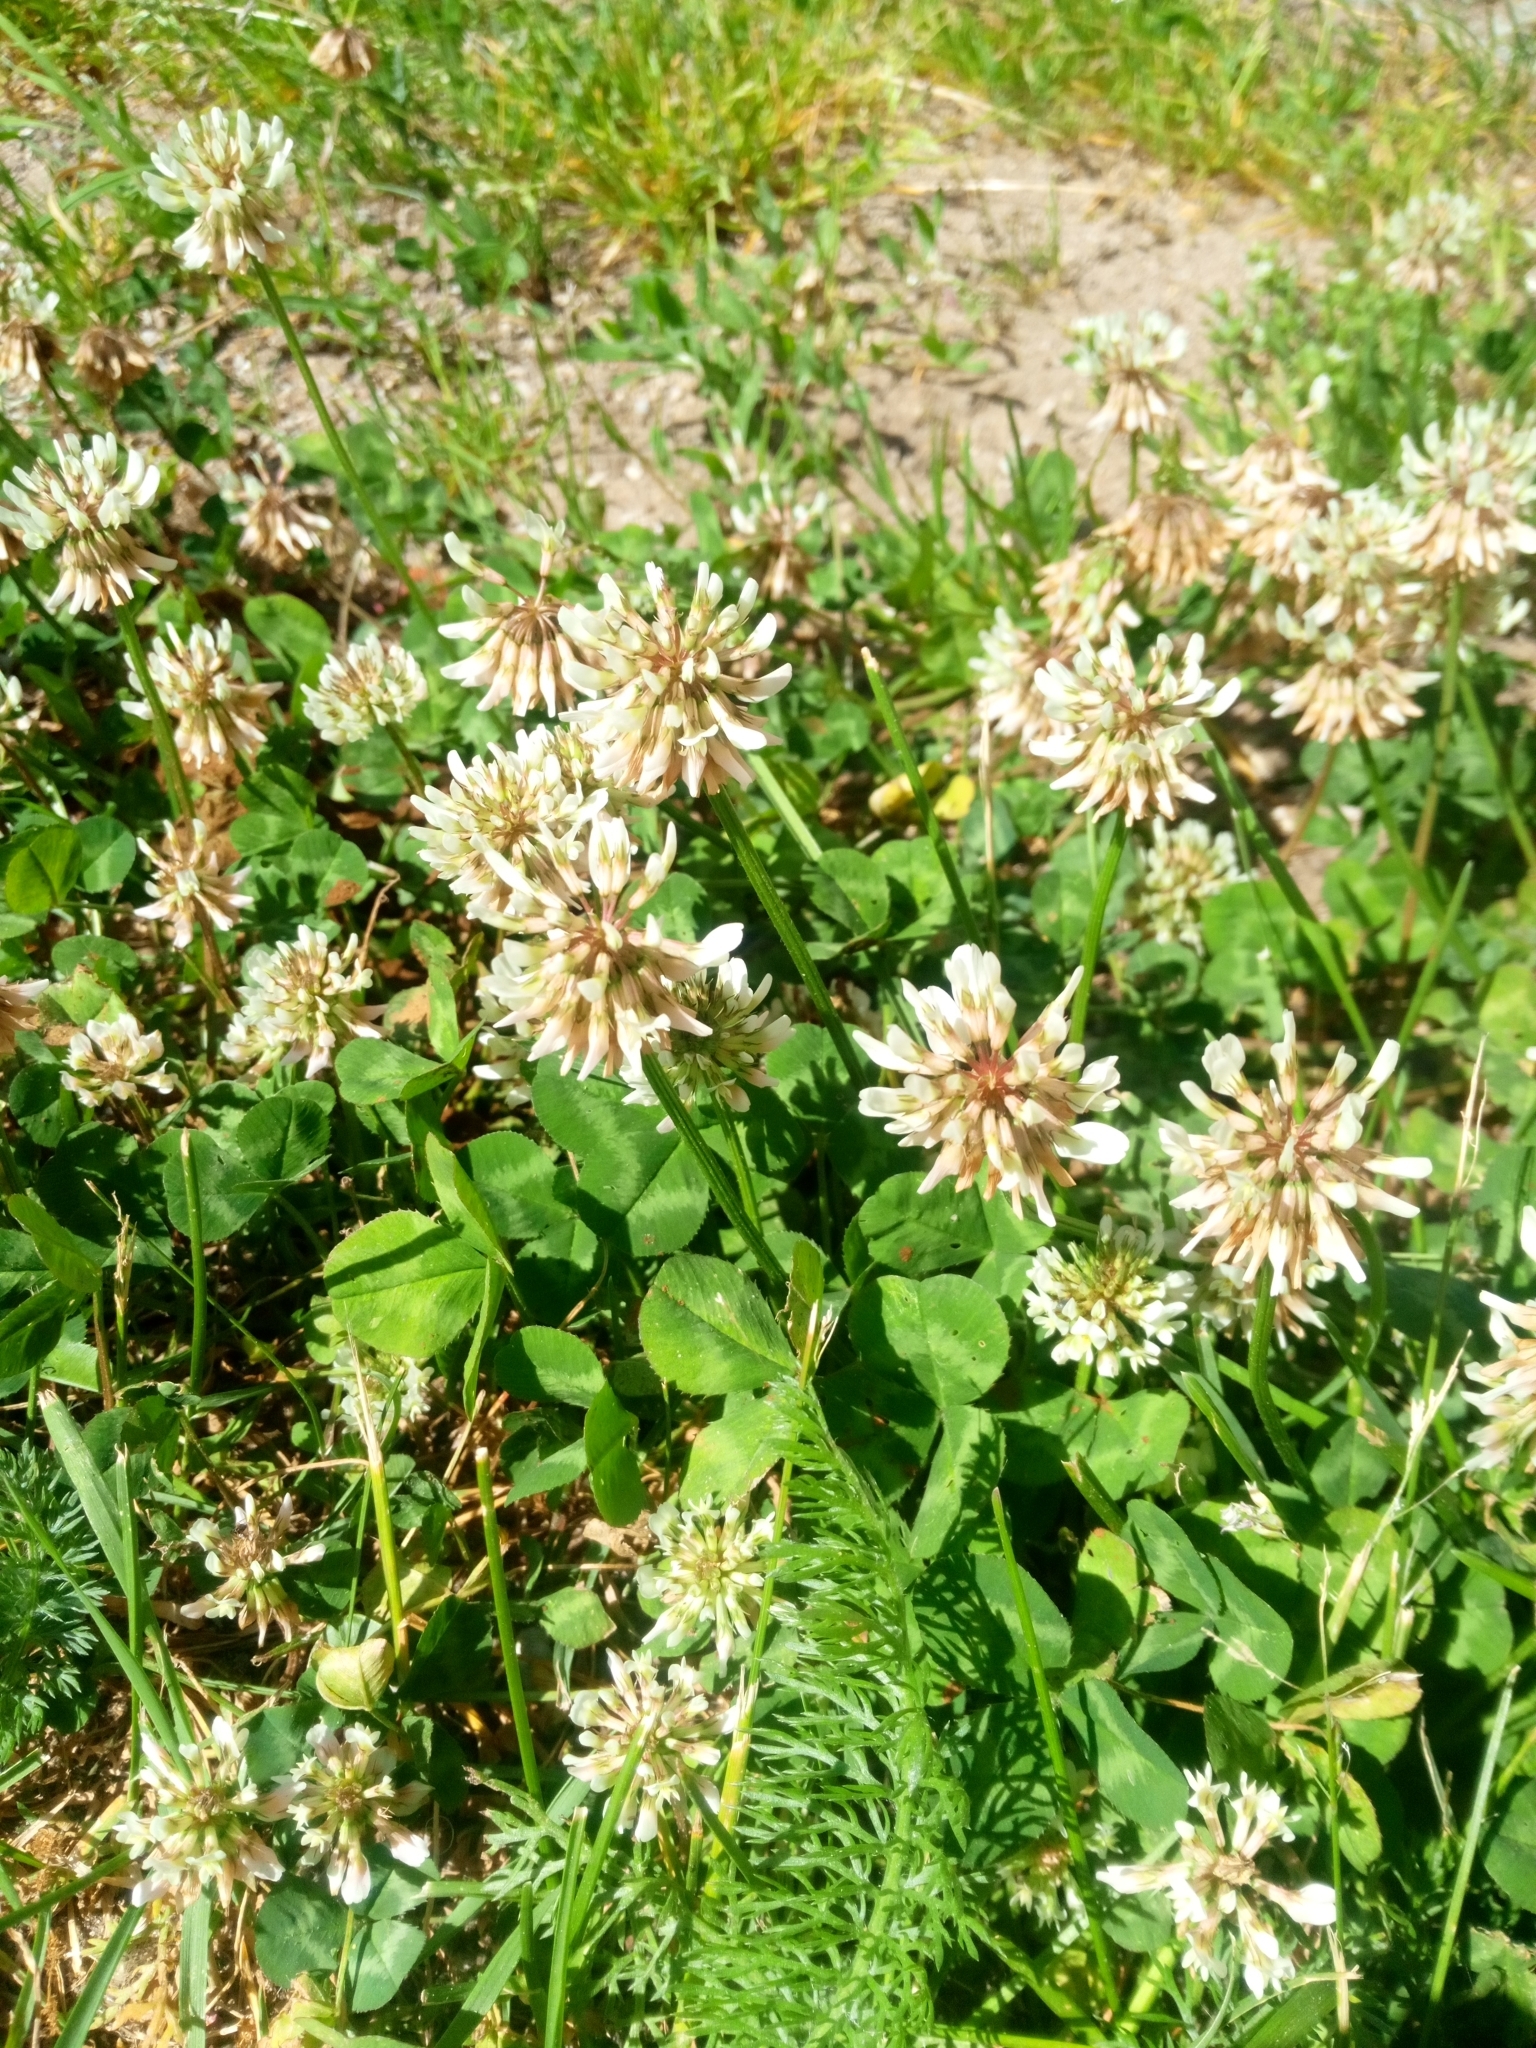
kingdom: Plantae
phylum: Tracheophyta
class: Magnoliopsida
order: Fabales
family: Fabaceae
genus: Trifolium
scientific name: Trifolium repens
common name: White clover
